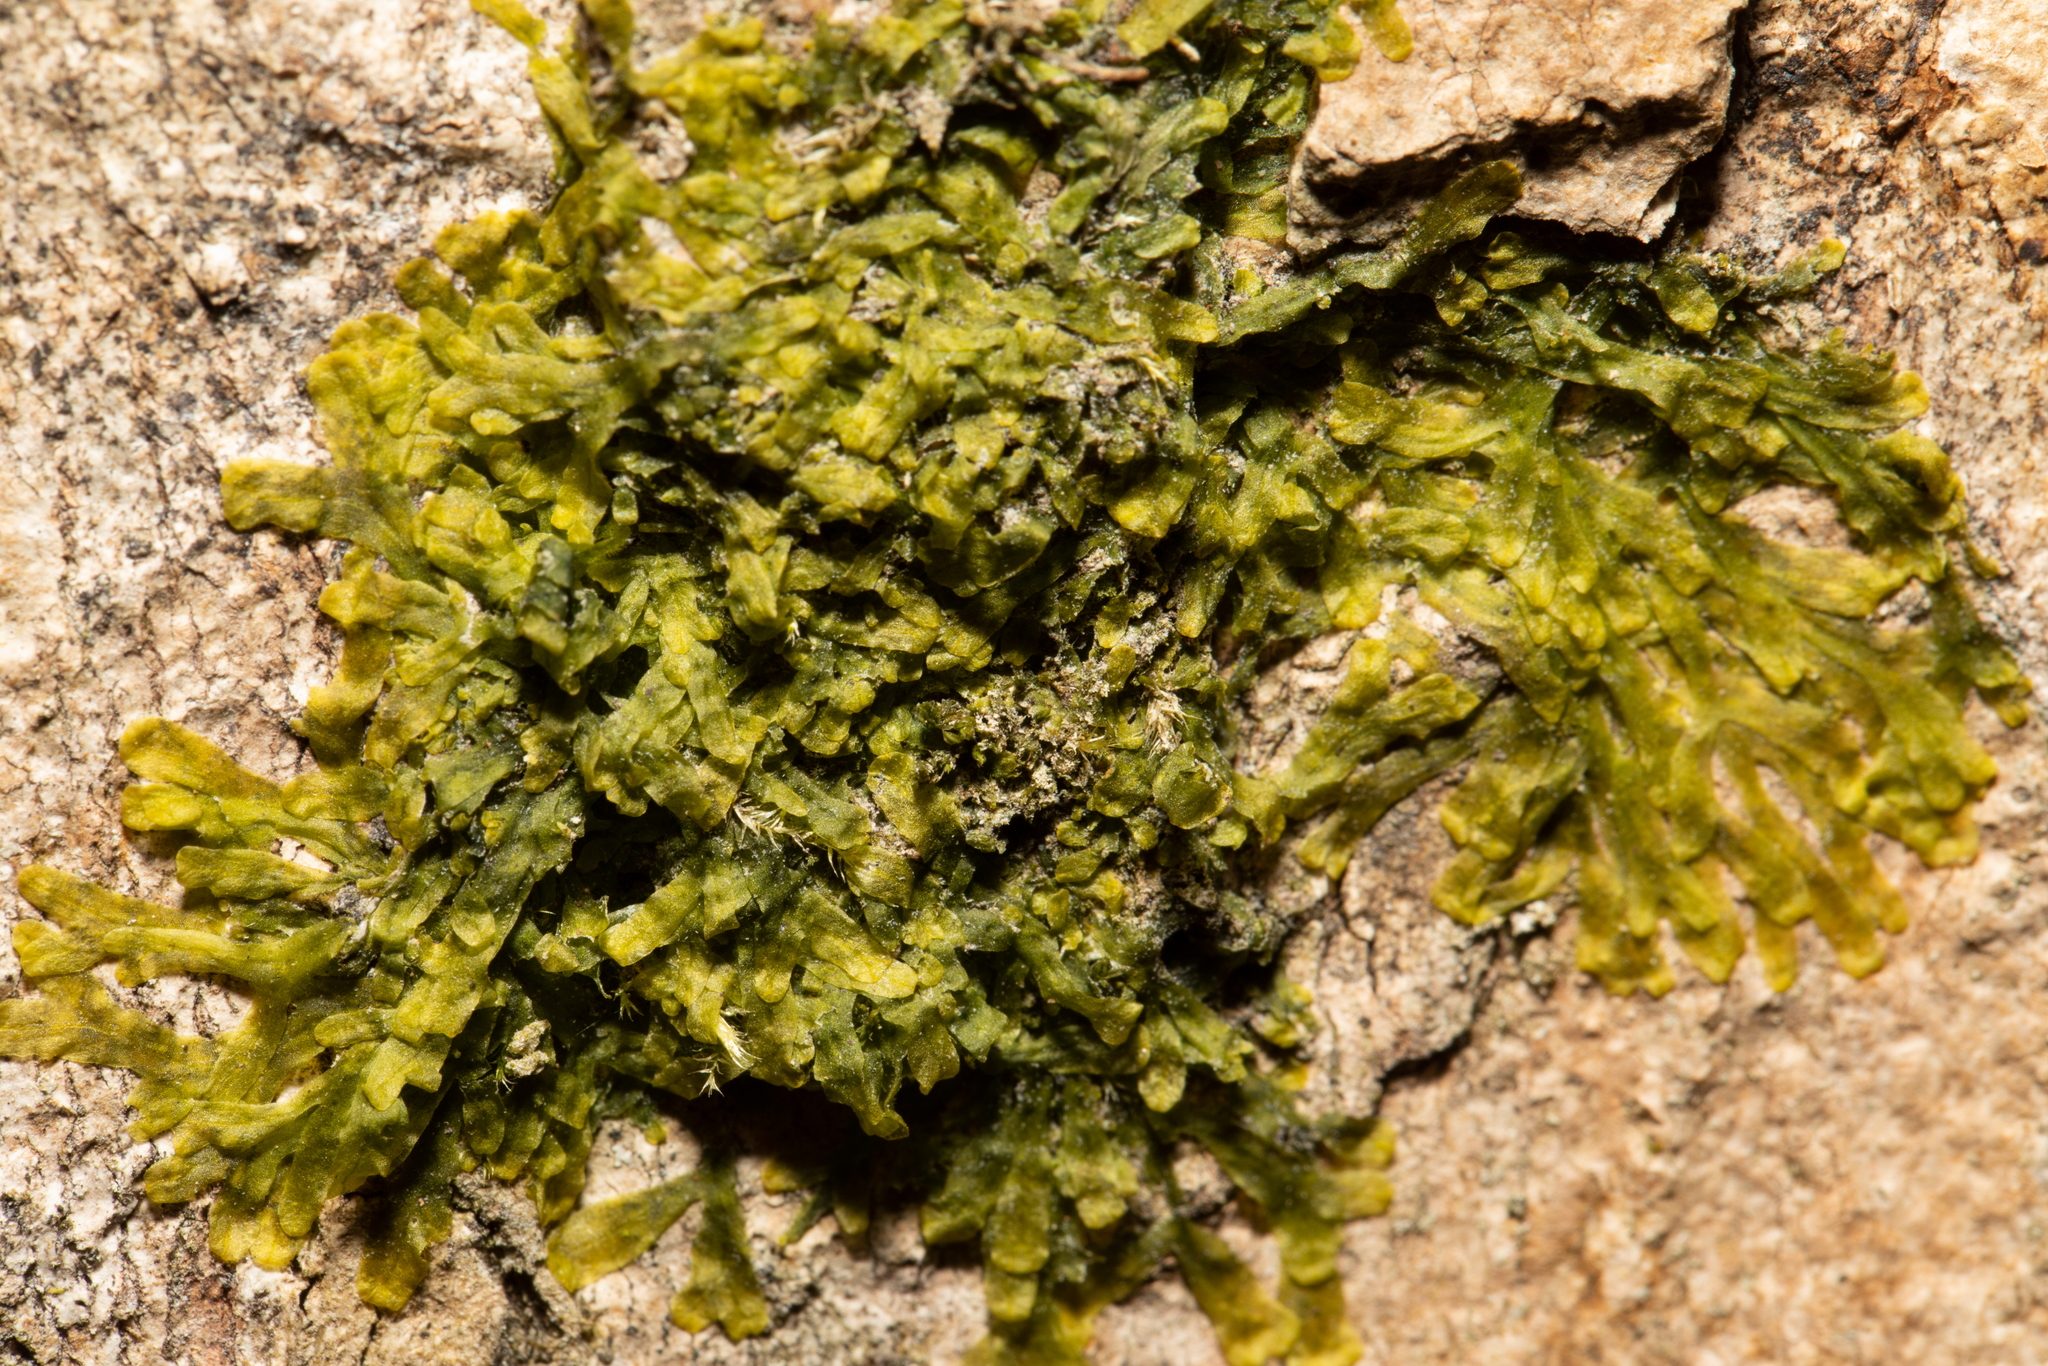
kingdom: Plantae
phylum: Marchantiophyta
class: Jungermanniopsida
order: Metzgeriales
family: Metzgeriaceae
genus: Metzgeria
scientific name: Metzgeria furcata
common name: Forked veilwort
